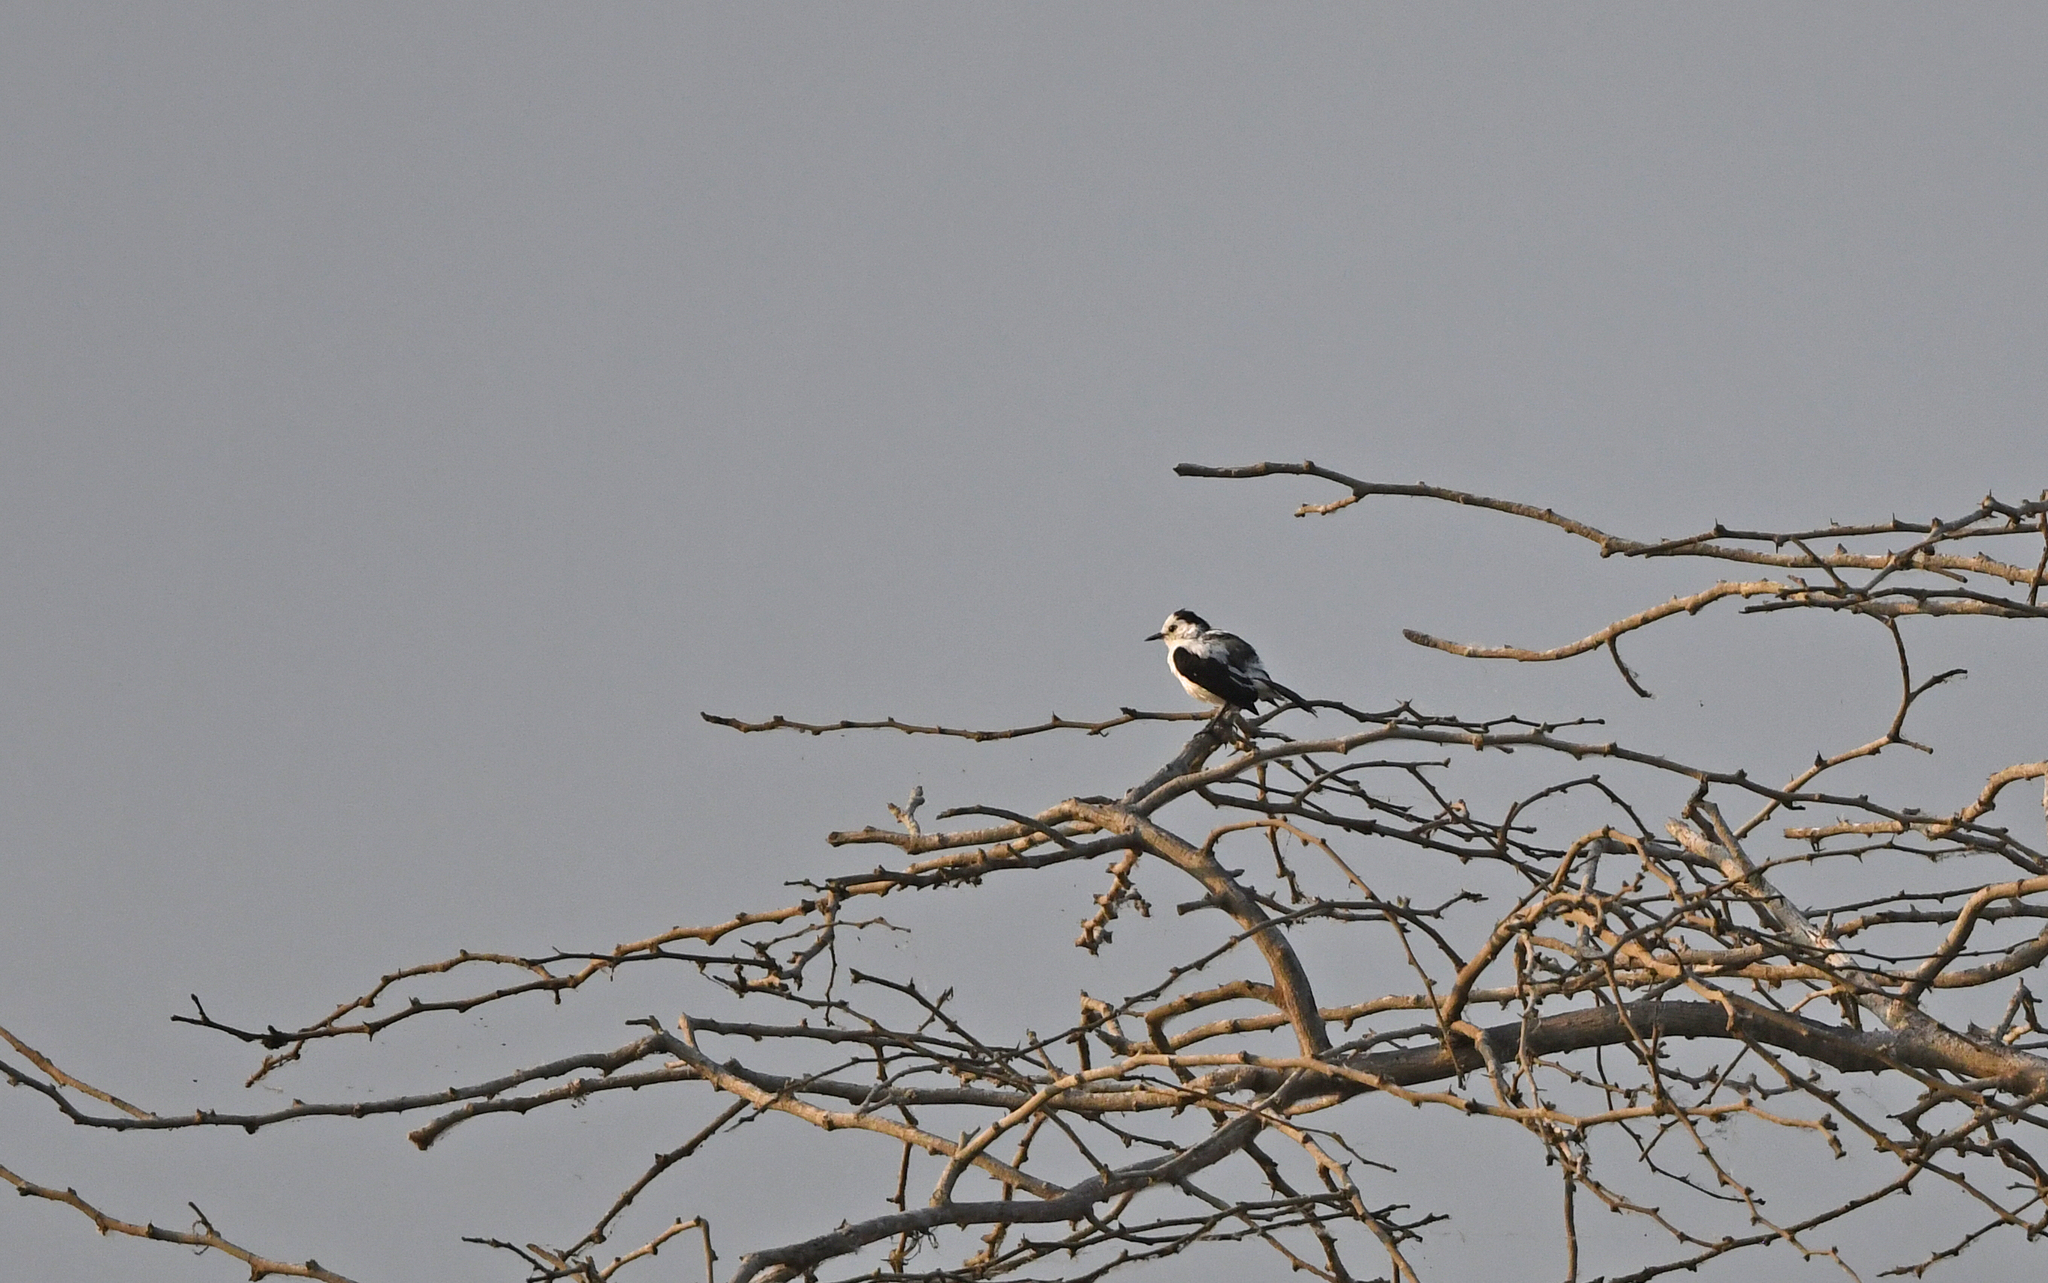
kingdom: Animalia
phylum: Chordata
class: Aves
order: Passeriformes
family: Tyrannidae
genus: Fluvicola
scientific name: Fluvicola pica
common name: Pied water-tyrant
